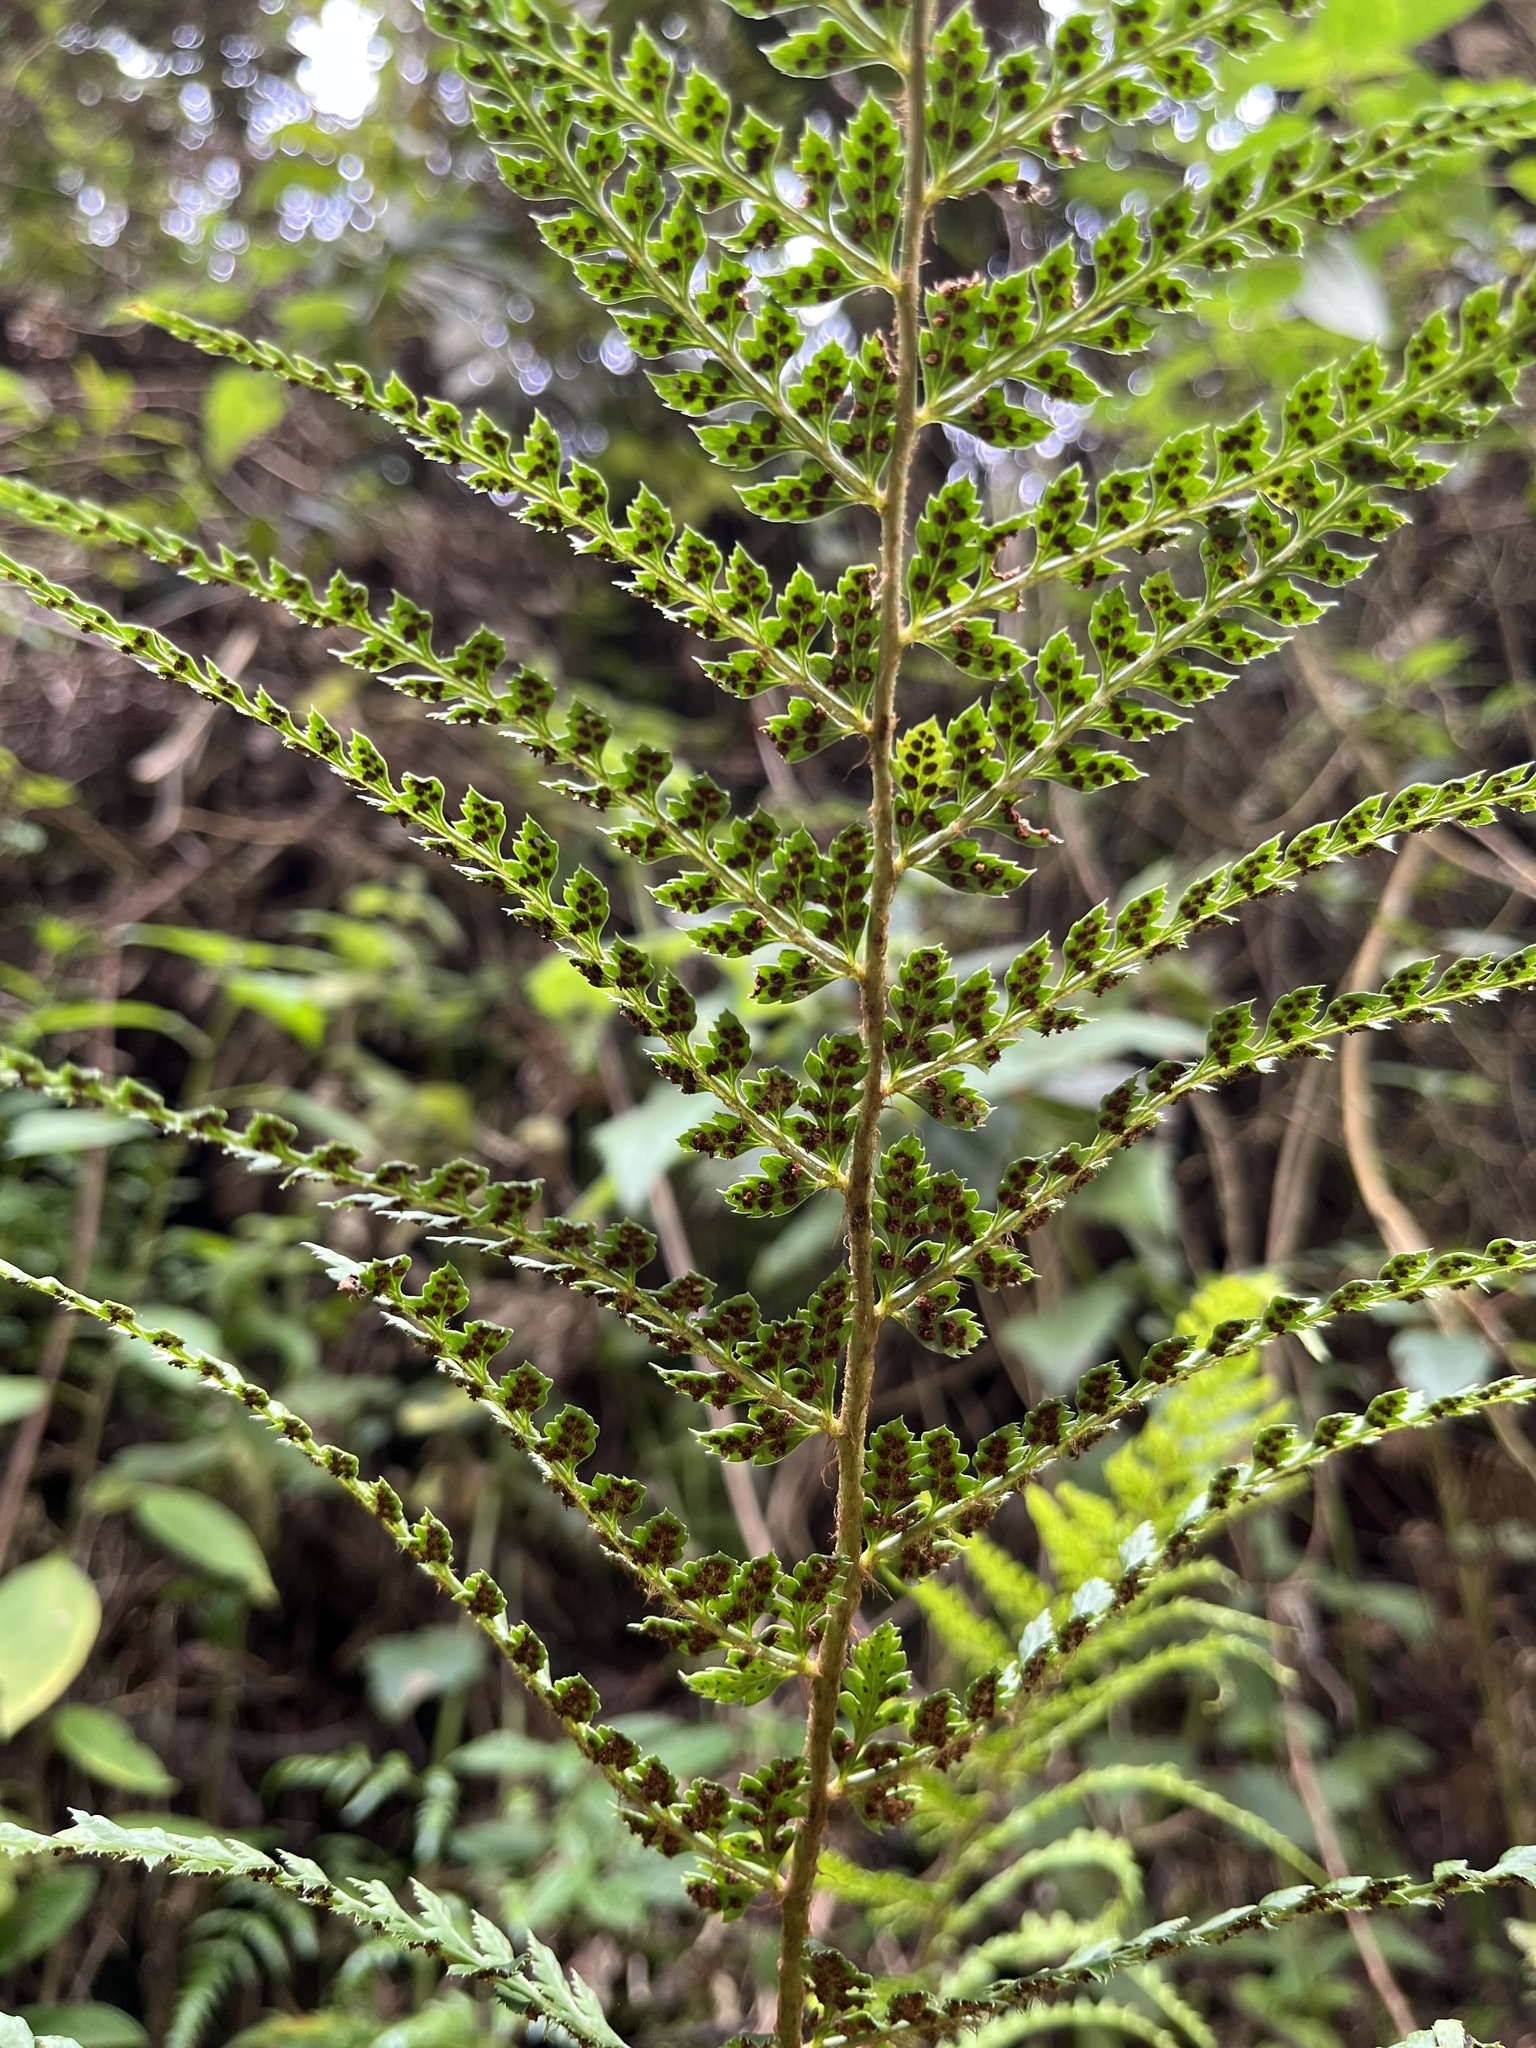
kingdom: Plantae
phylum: Tracheophyta
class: Polypodiopsida
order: Polypodiales
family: Dryopteridaceae
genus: Polystichum
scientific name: Polystichum muricatum
